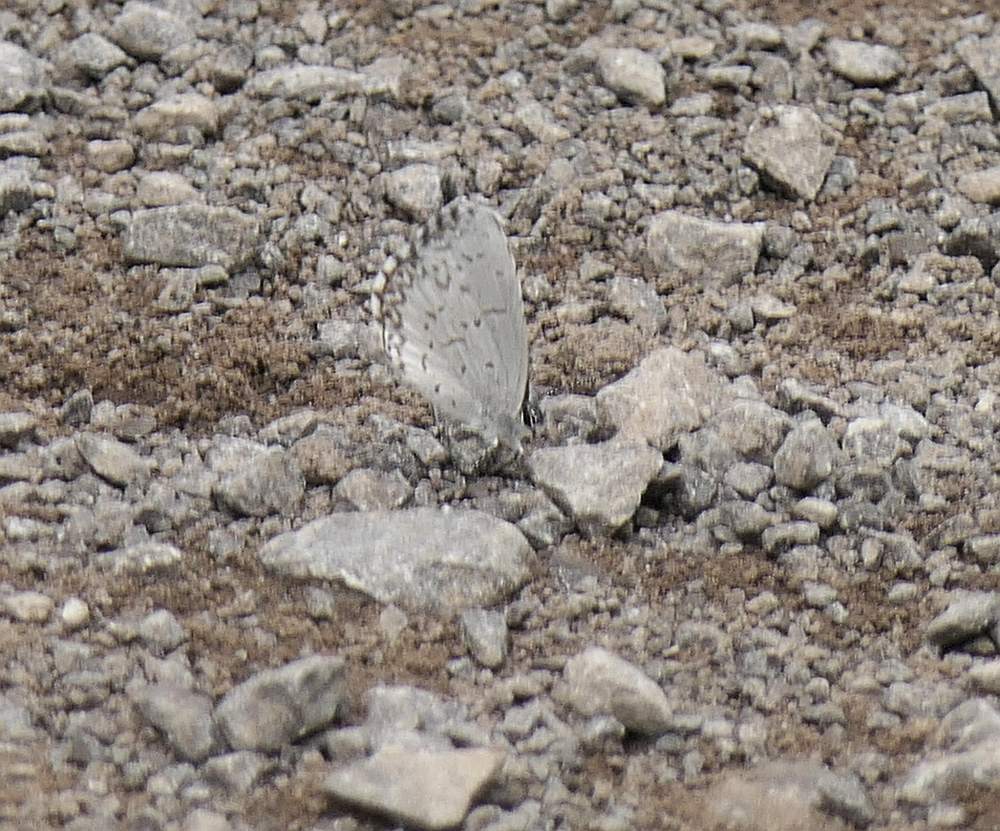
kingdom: Animalia
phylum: Arthropoda
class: Insecta
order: Lepidoptera
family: Lycaenidae
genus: Celastrina
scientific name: Celastrina lucia
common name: Lucia azure
